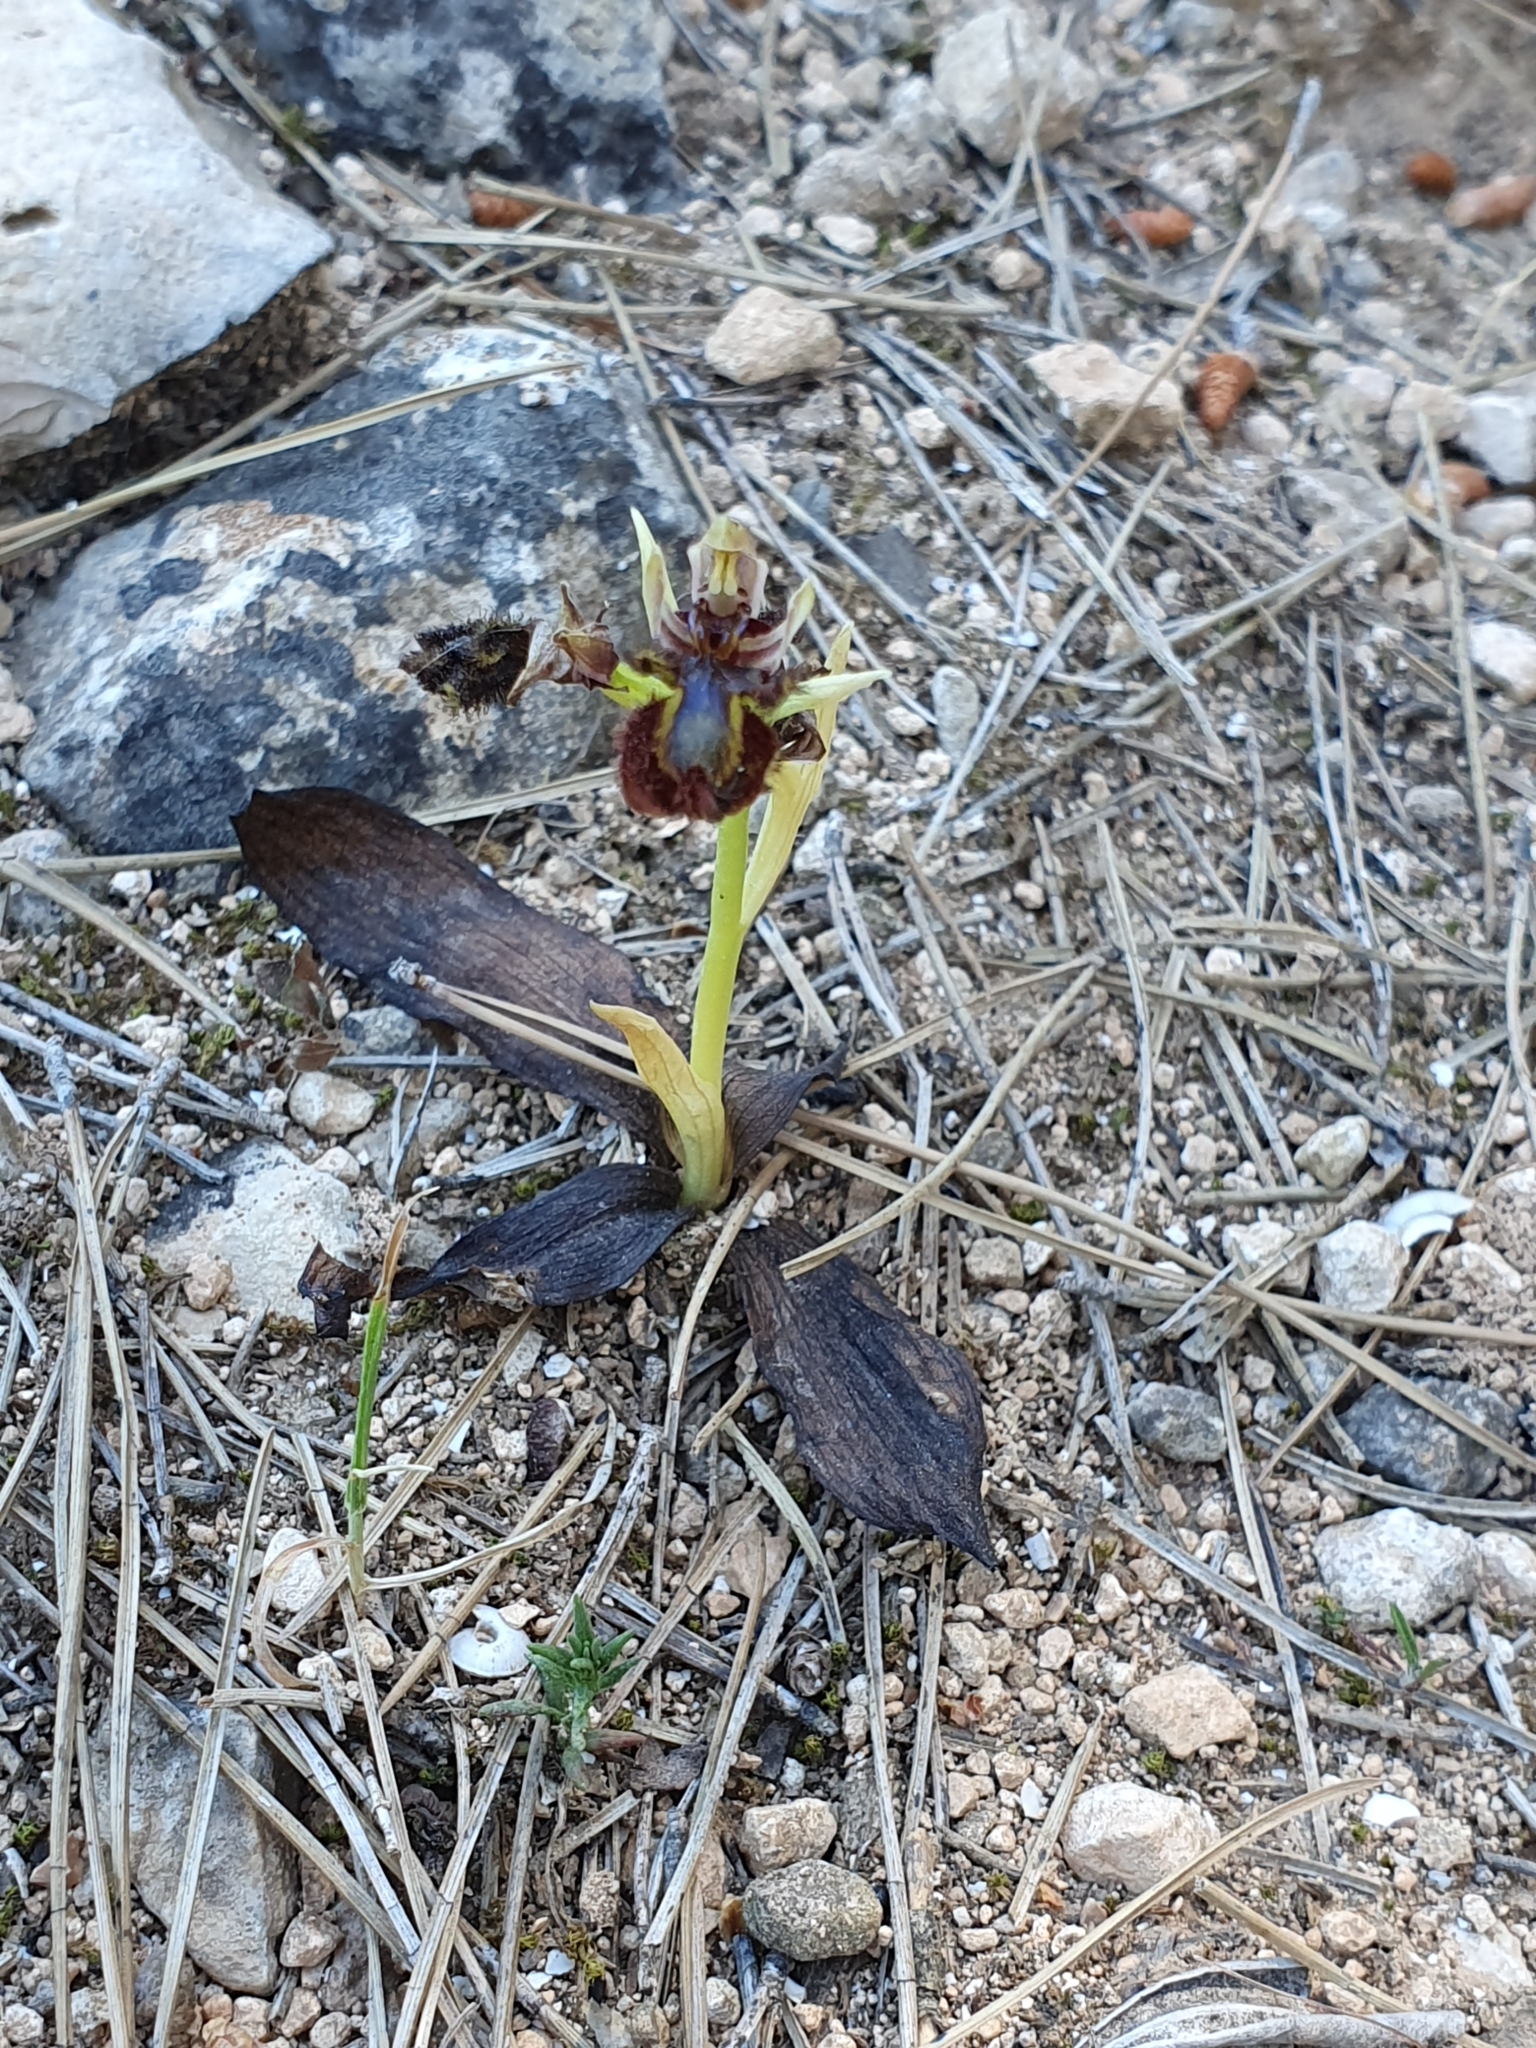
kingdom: Plantae
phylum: Tracheophyta
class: Liliopsida
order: Asparagales
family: Orchidaceae
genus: Ophrys
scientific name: Ophrys speculum
